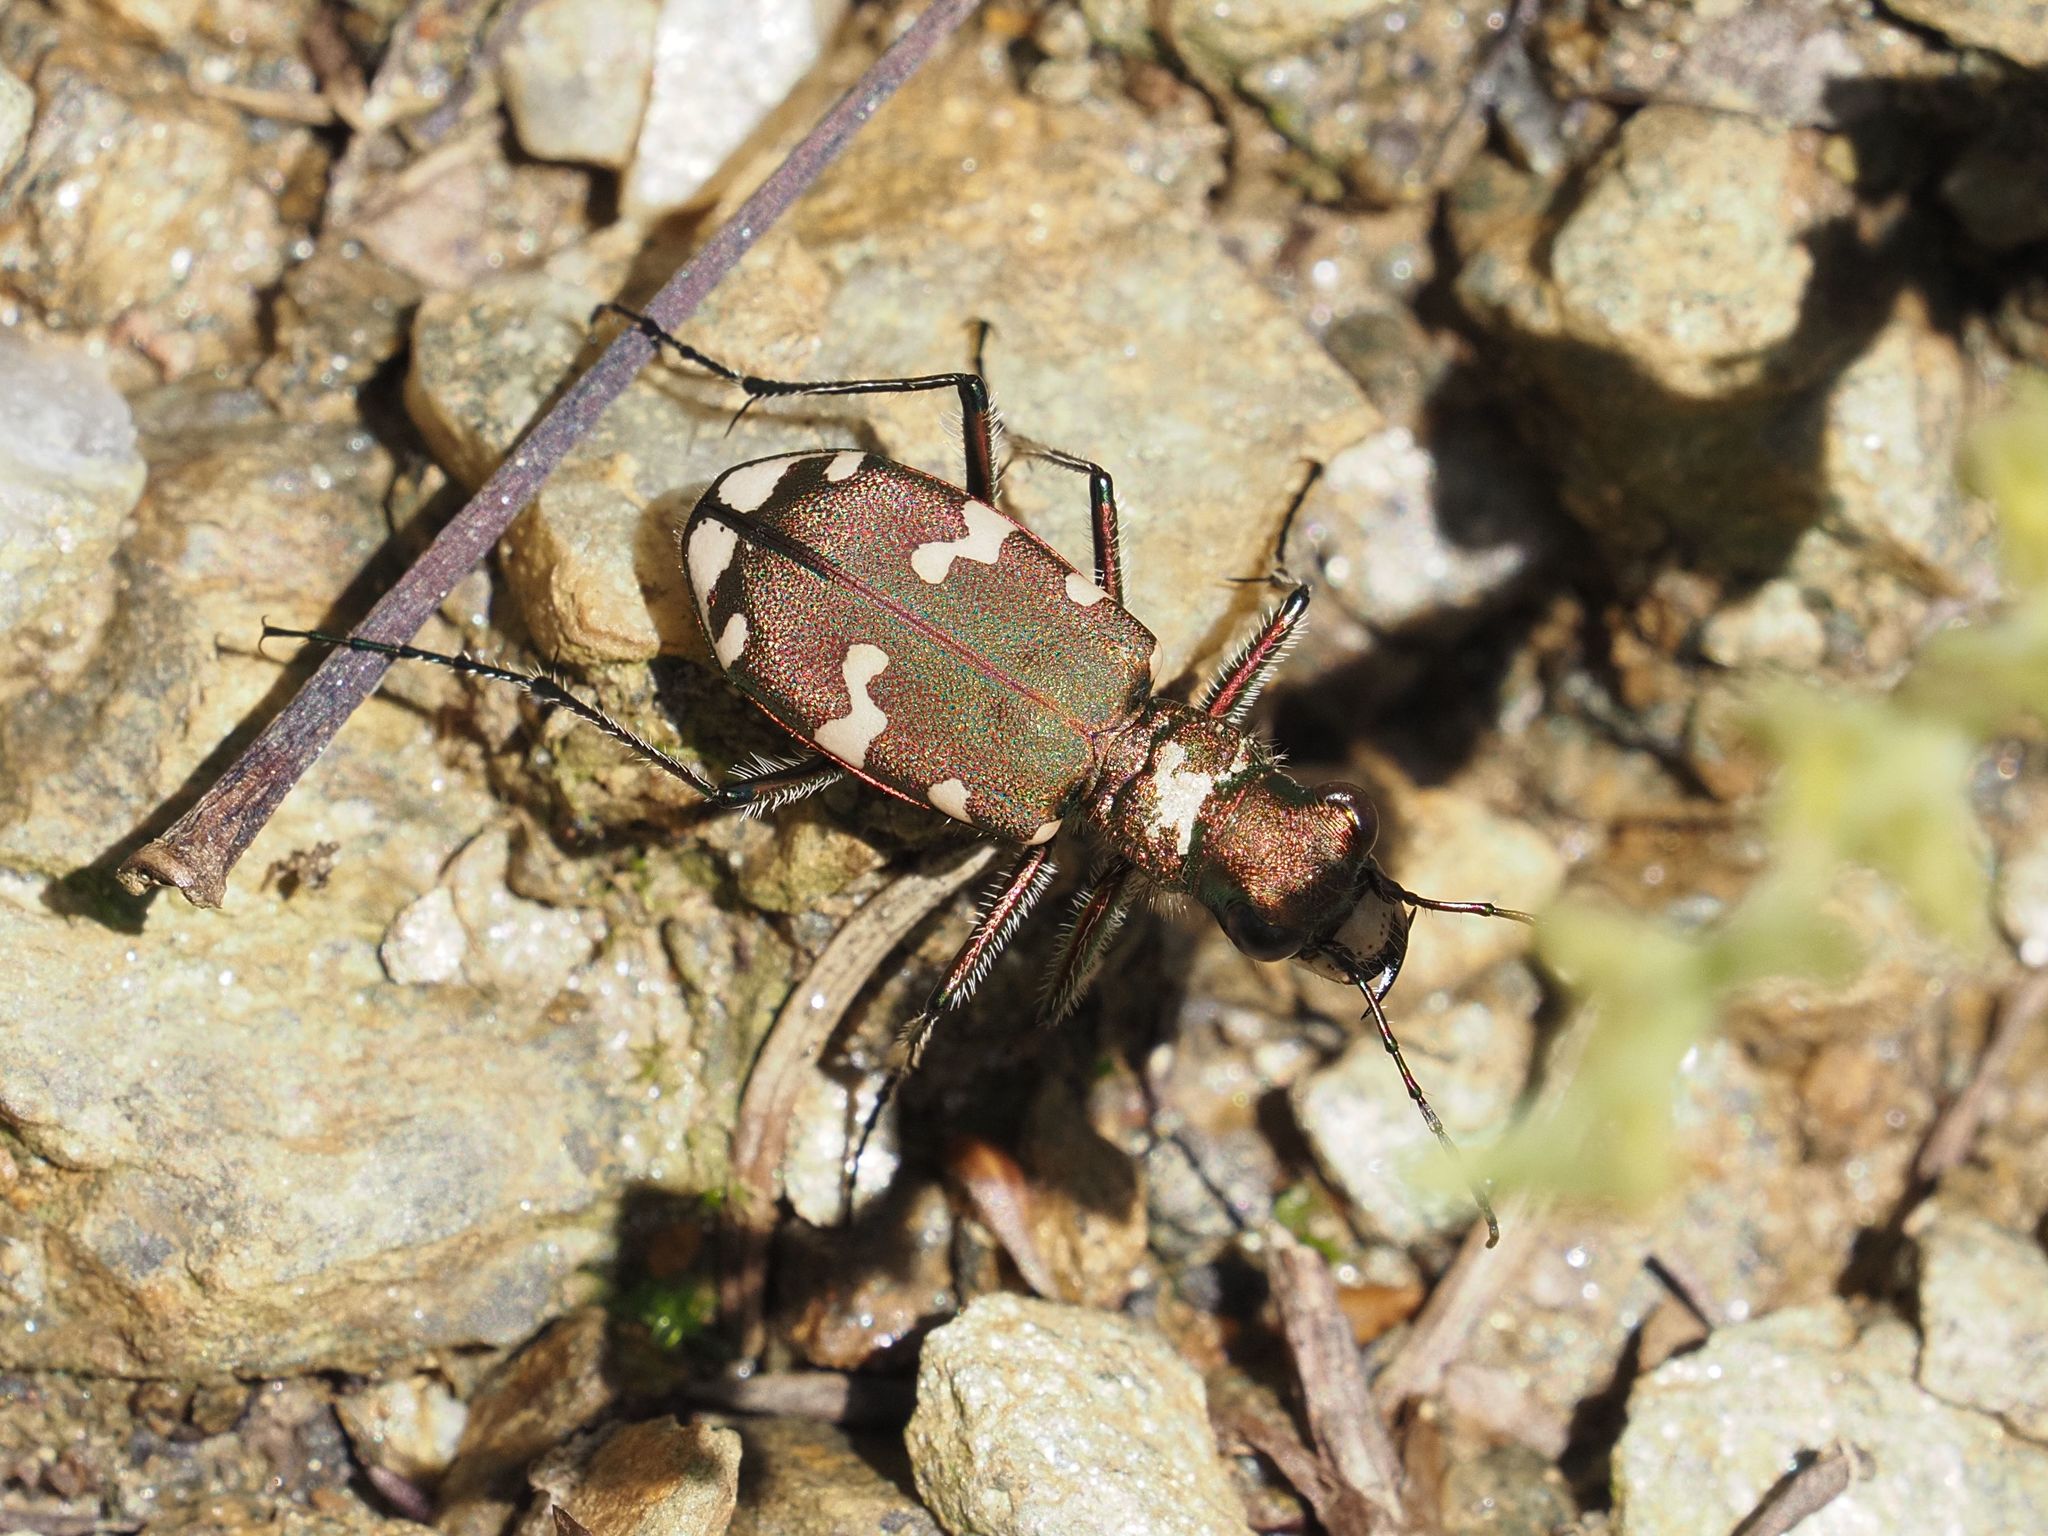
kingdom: Animalia
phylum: Arthropoda
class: Insecta
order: Coleoptera
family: Carabidae
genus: Cicindela
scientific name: Cicindela sylvicola
